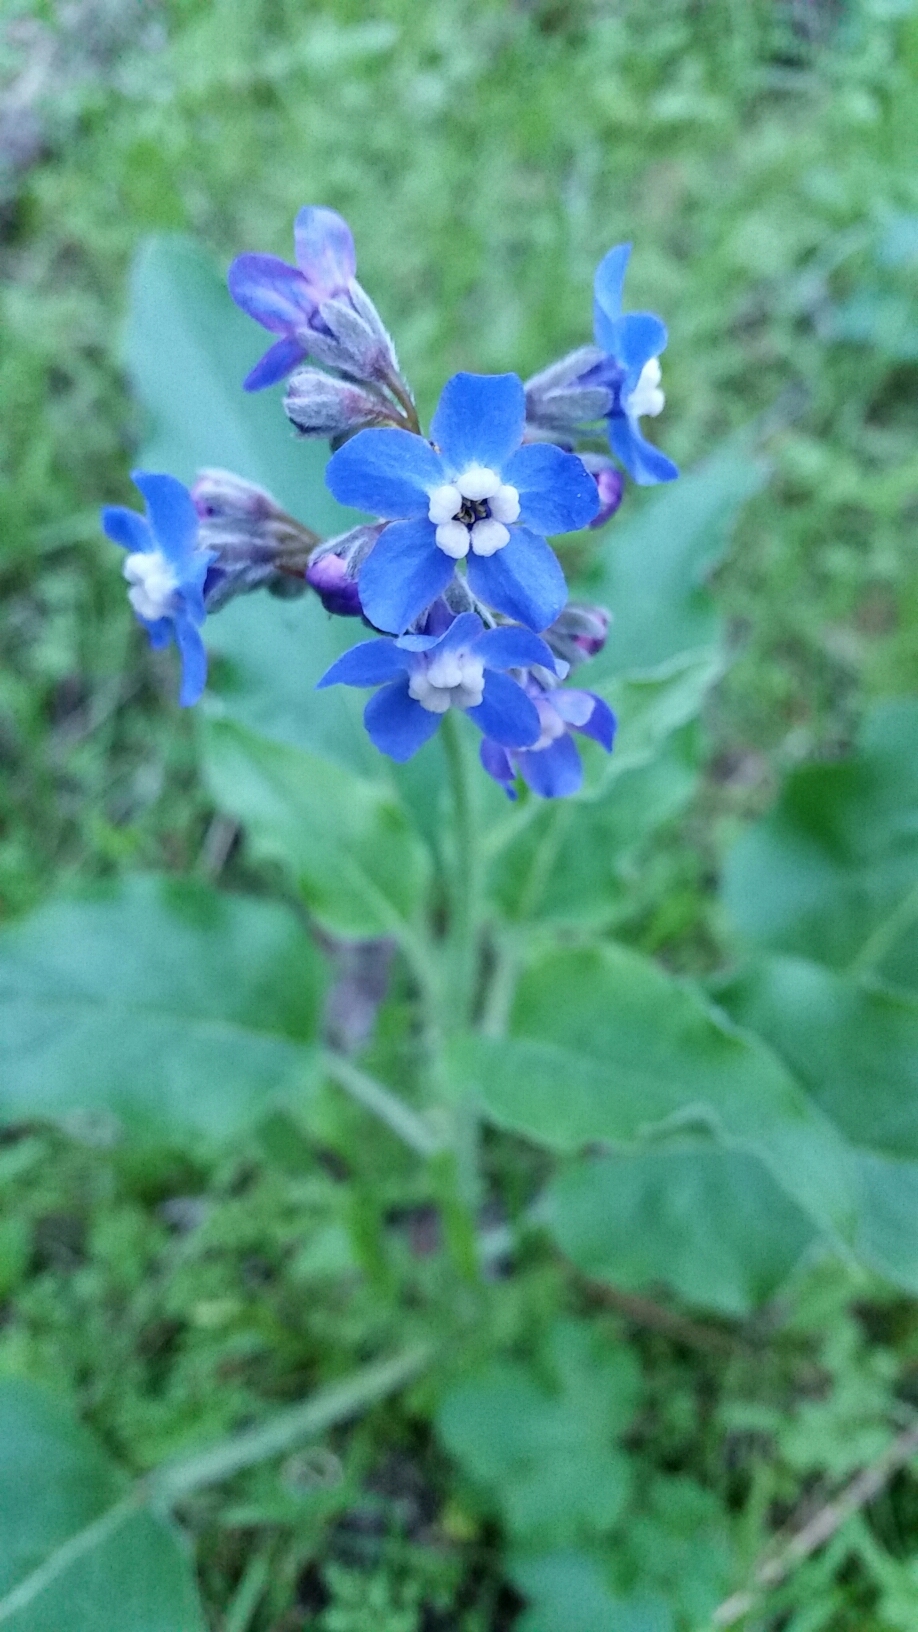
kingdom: Plantae
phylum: Tracheophyta
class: Magnoliopsida
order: Boraginales
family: Boraginaceae
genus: Adelinia
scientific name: Adelinia grande
